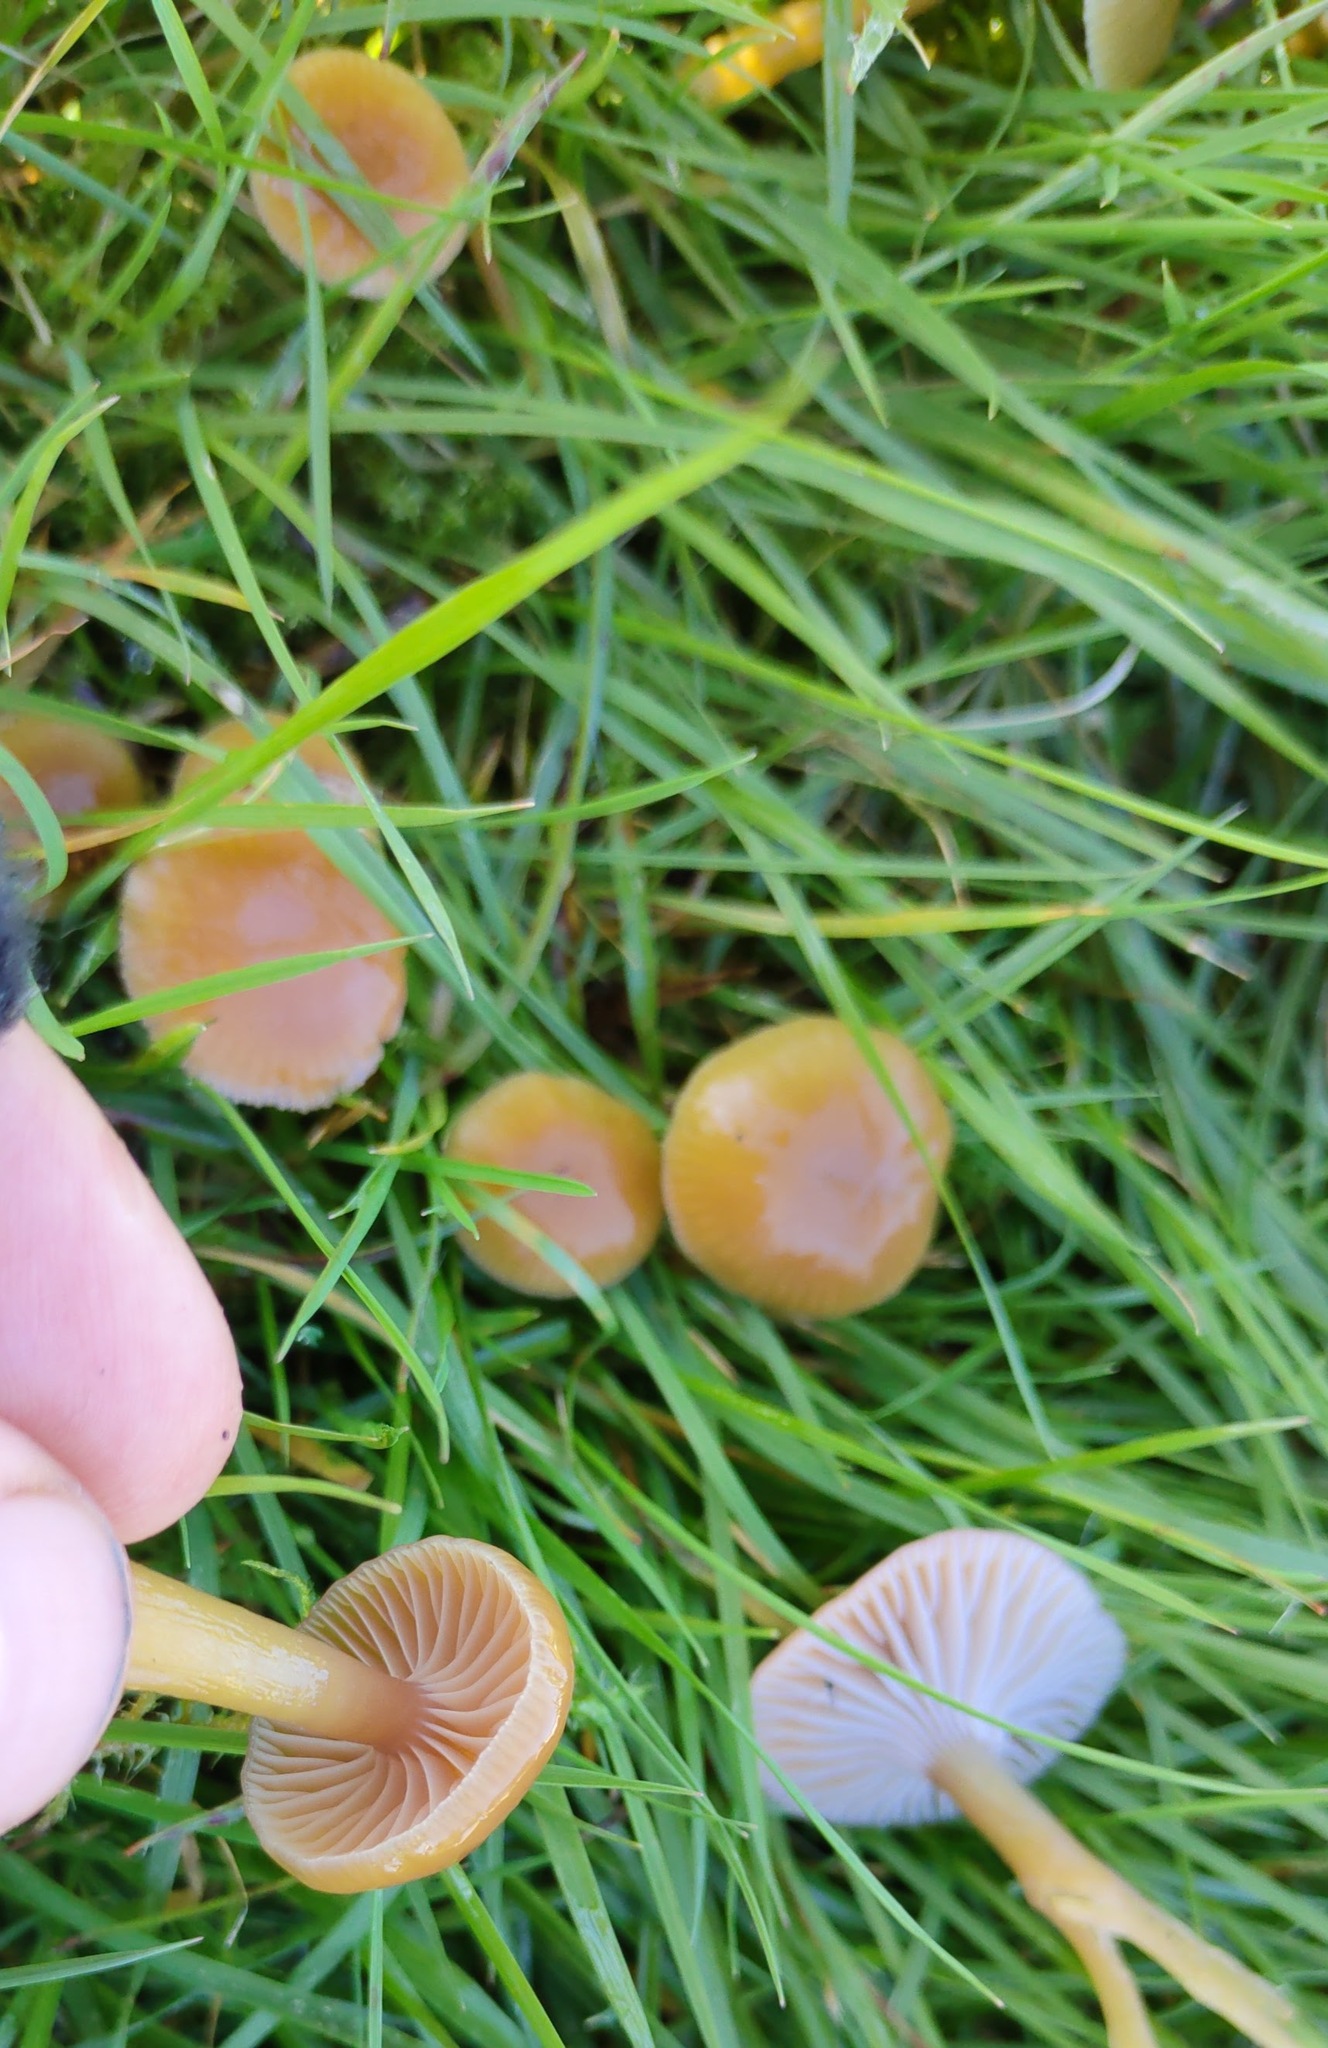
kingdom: Fungi
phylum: Basidiomycota
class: Agaricomycetes
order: Agaricales
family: Hygrophoraceae
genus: Gliophorus
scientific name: Gliophorus laetus
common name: Heath waxcap
